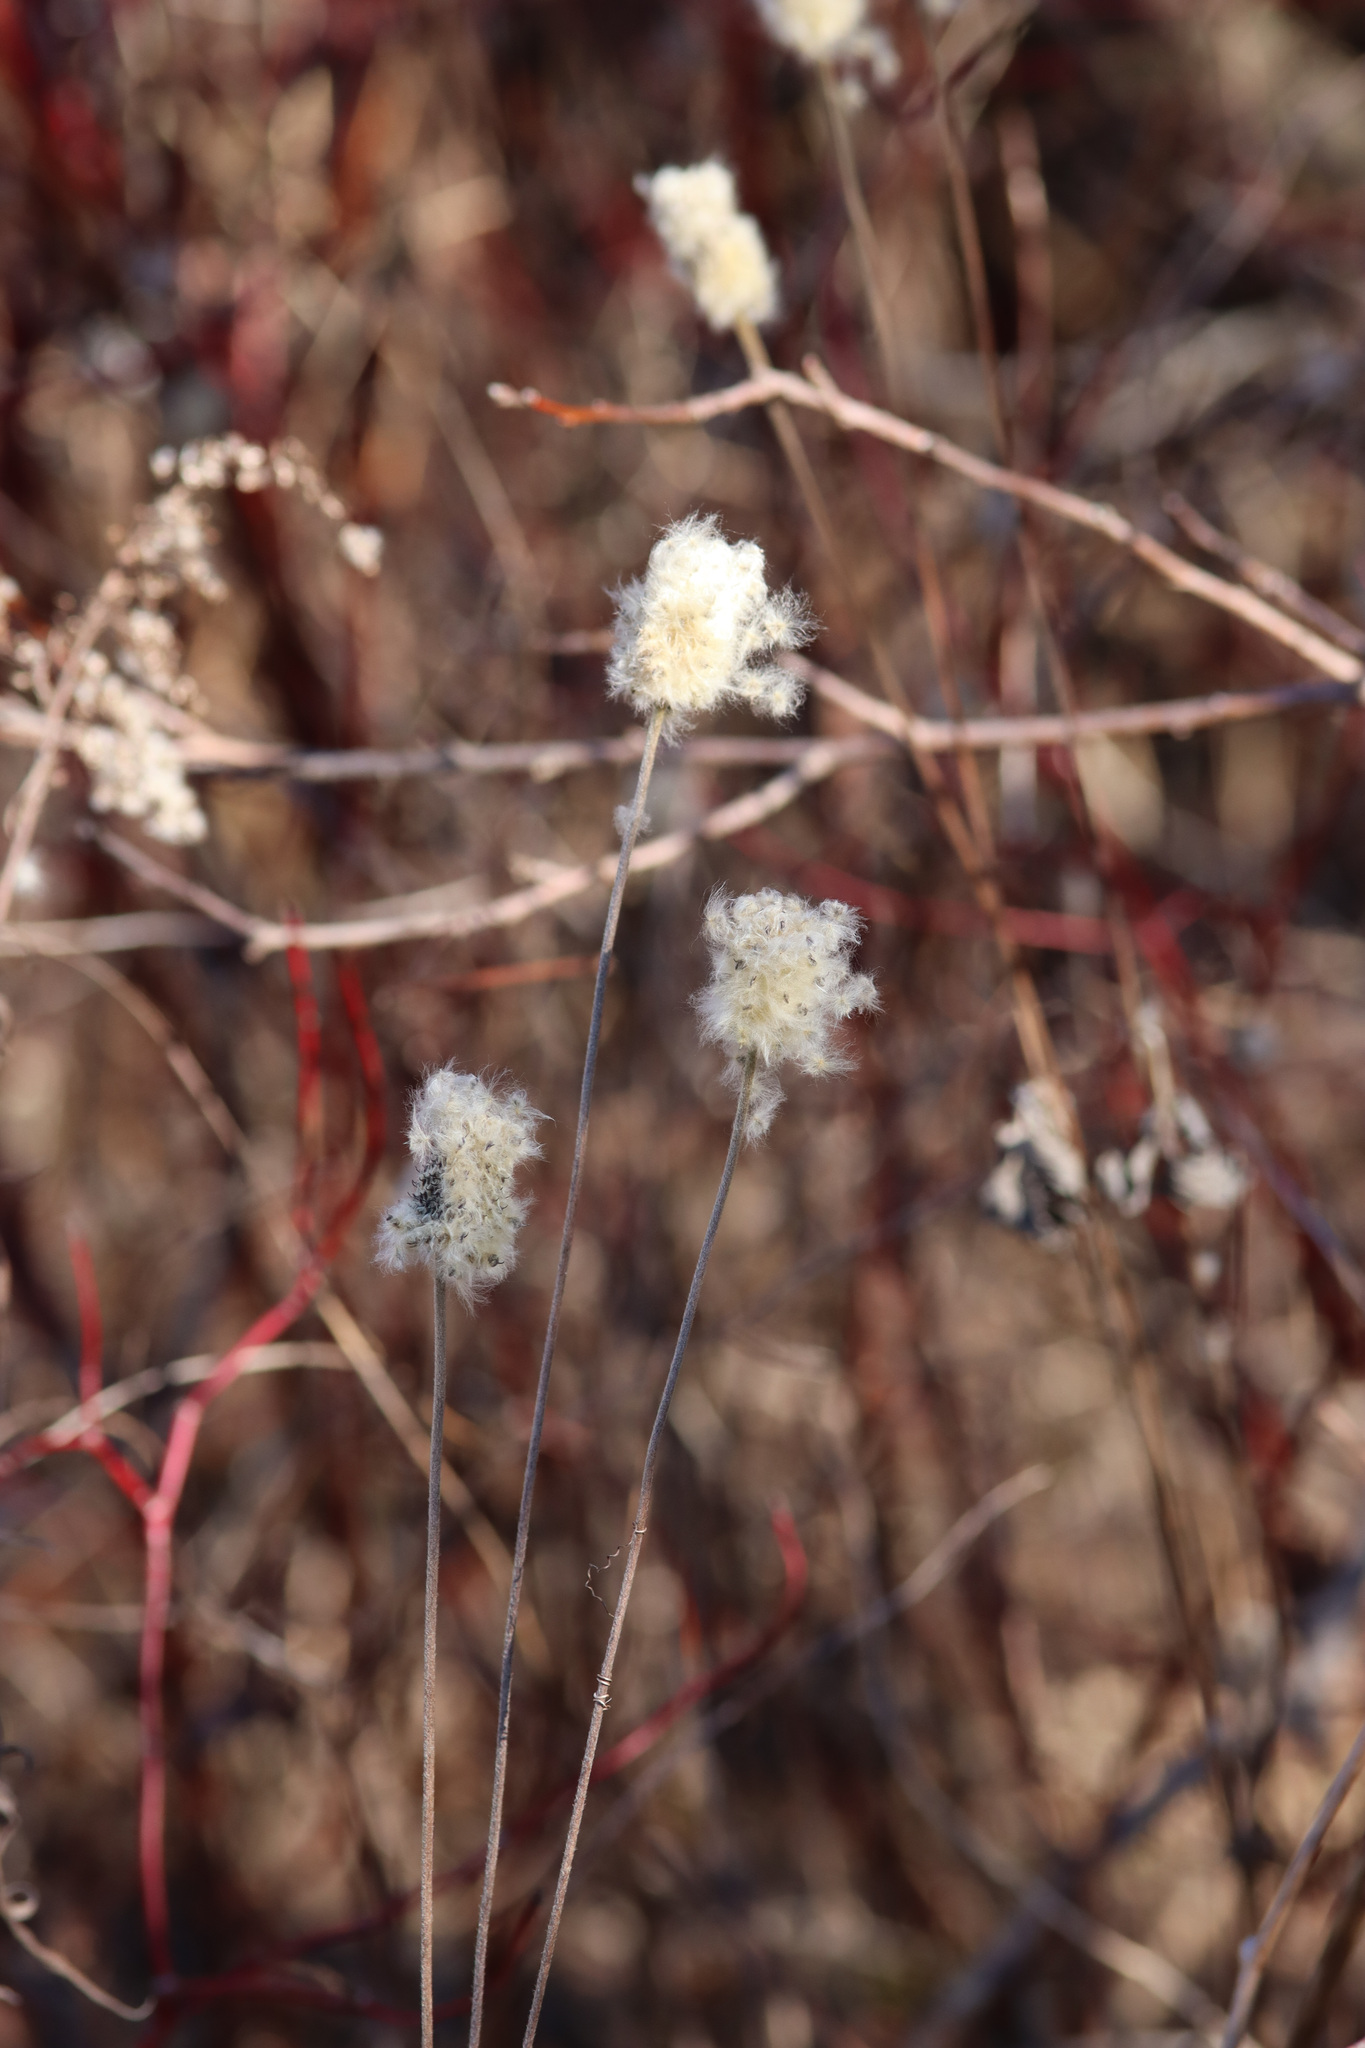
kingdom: Plantae
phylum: Tracheophyta
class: Magnoliopsida
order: Ranunculales
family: Ranunculaceae
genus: Anemone
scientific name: Anemone virginiana
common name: Tall anemone
